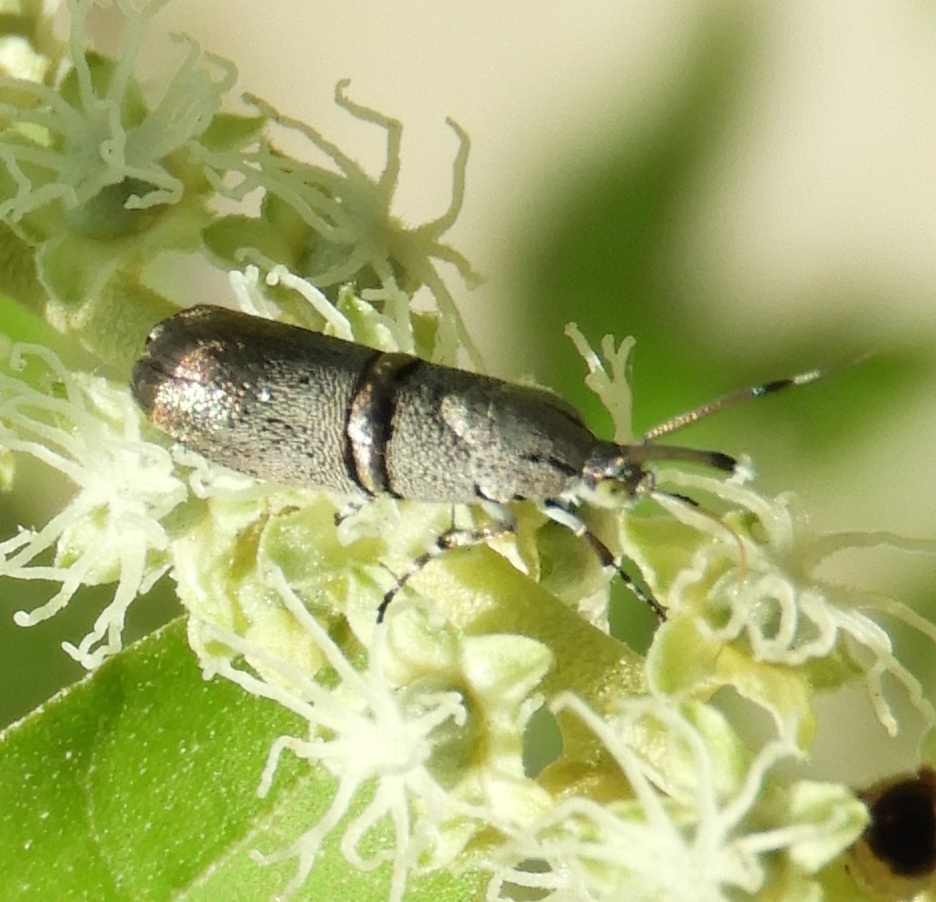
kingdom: Animalia
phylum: Arthropoda
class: Insecta
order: Lepidoptera
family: Choreutidae
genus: Tortyra
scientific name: Tortyra
